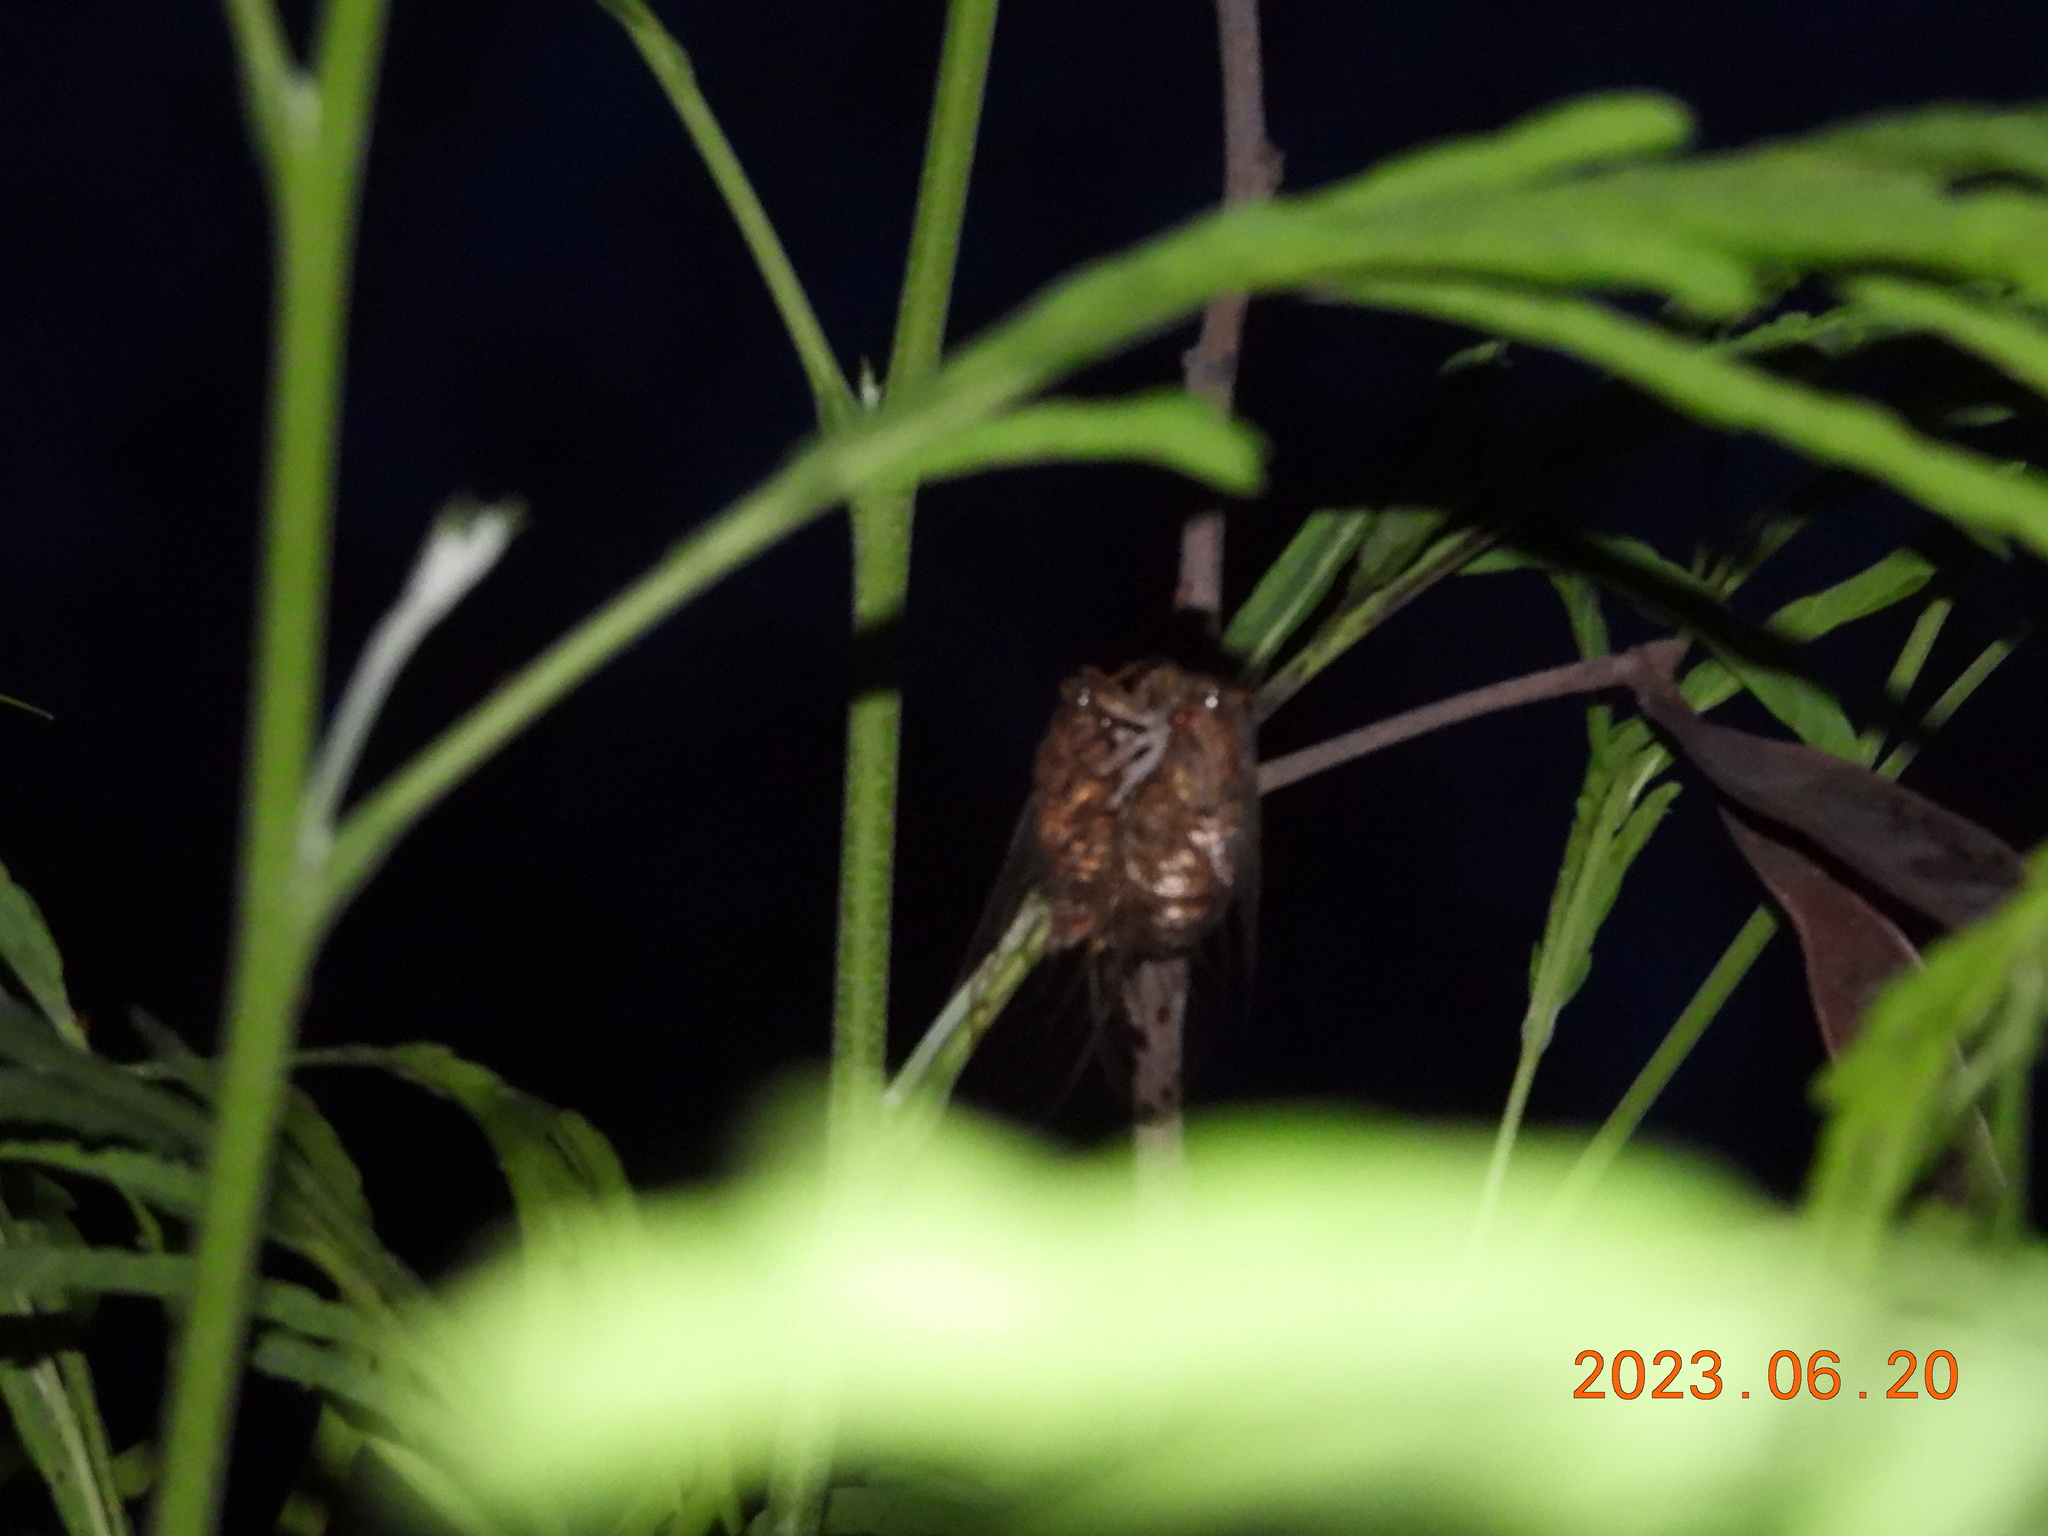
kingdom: Animalia
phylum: Arthropoda
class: Insecta
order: Hemiptera
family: Cicadidae
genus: Taiwanosemia
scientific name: Taiwanosemia hoppoensis
